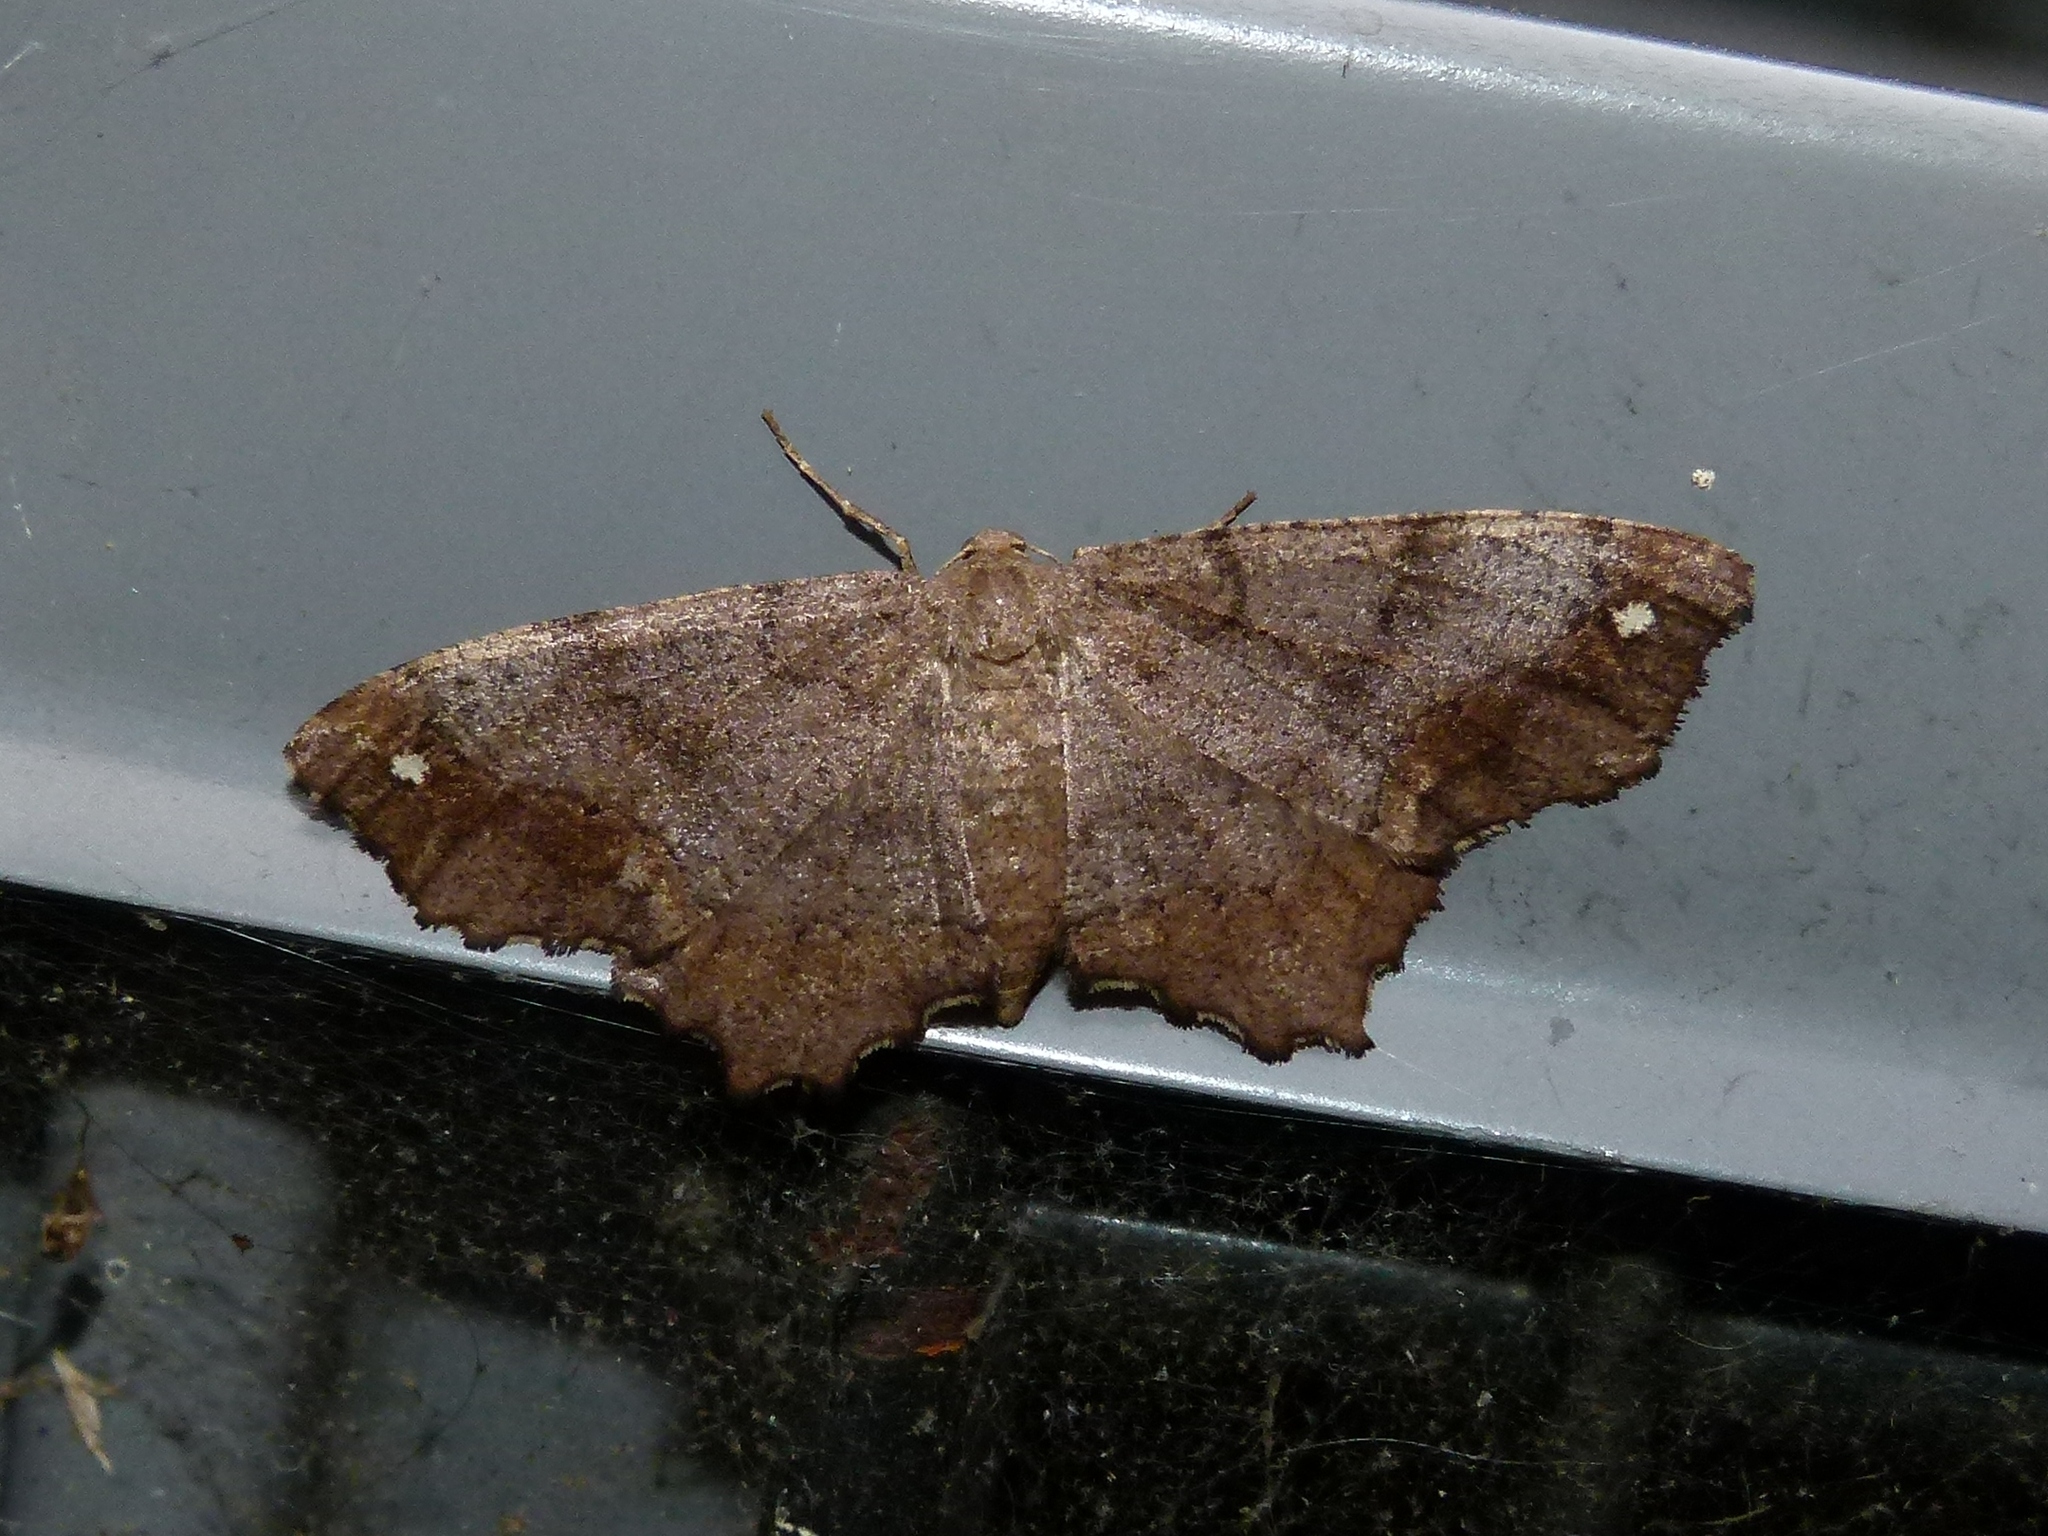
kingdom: Animalia
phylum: Arthropoda
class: Insecta
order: Lepidoptera
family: Geometridae
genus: Hypagyrtis
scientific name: Hypagyrtis unipunctata
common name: One-spotted variant
